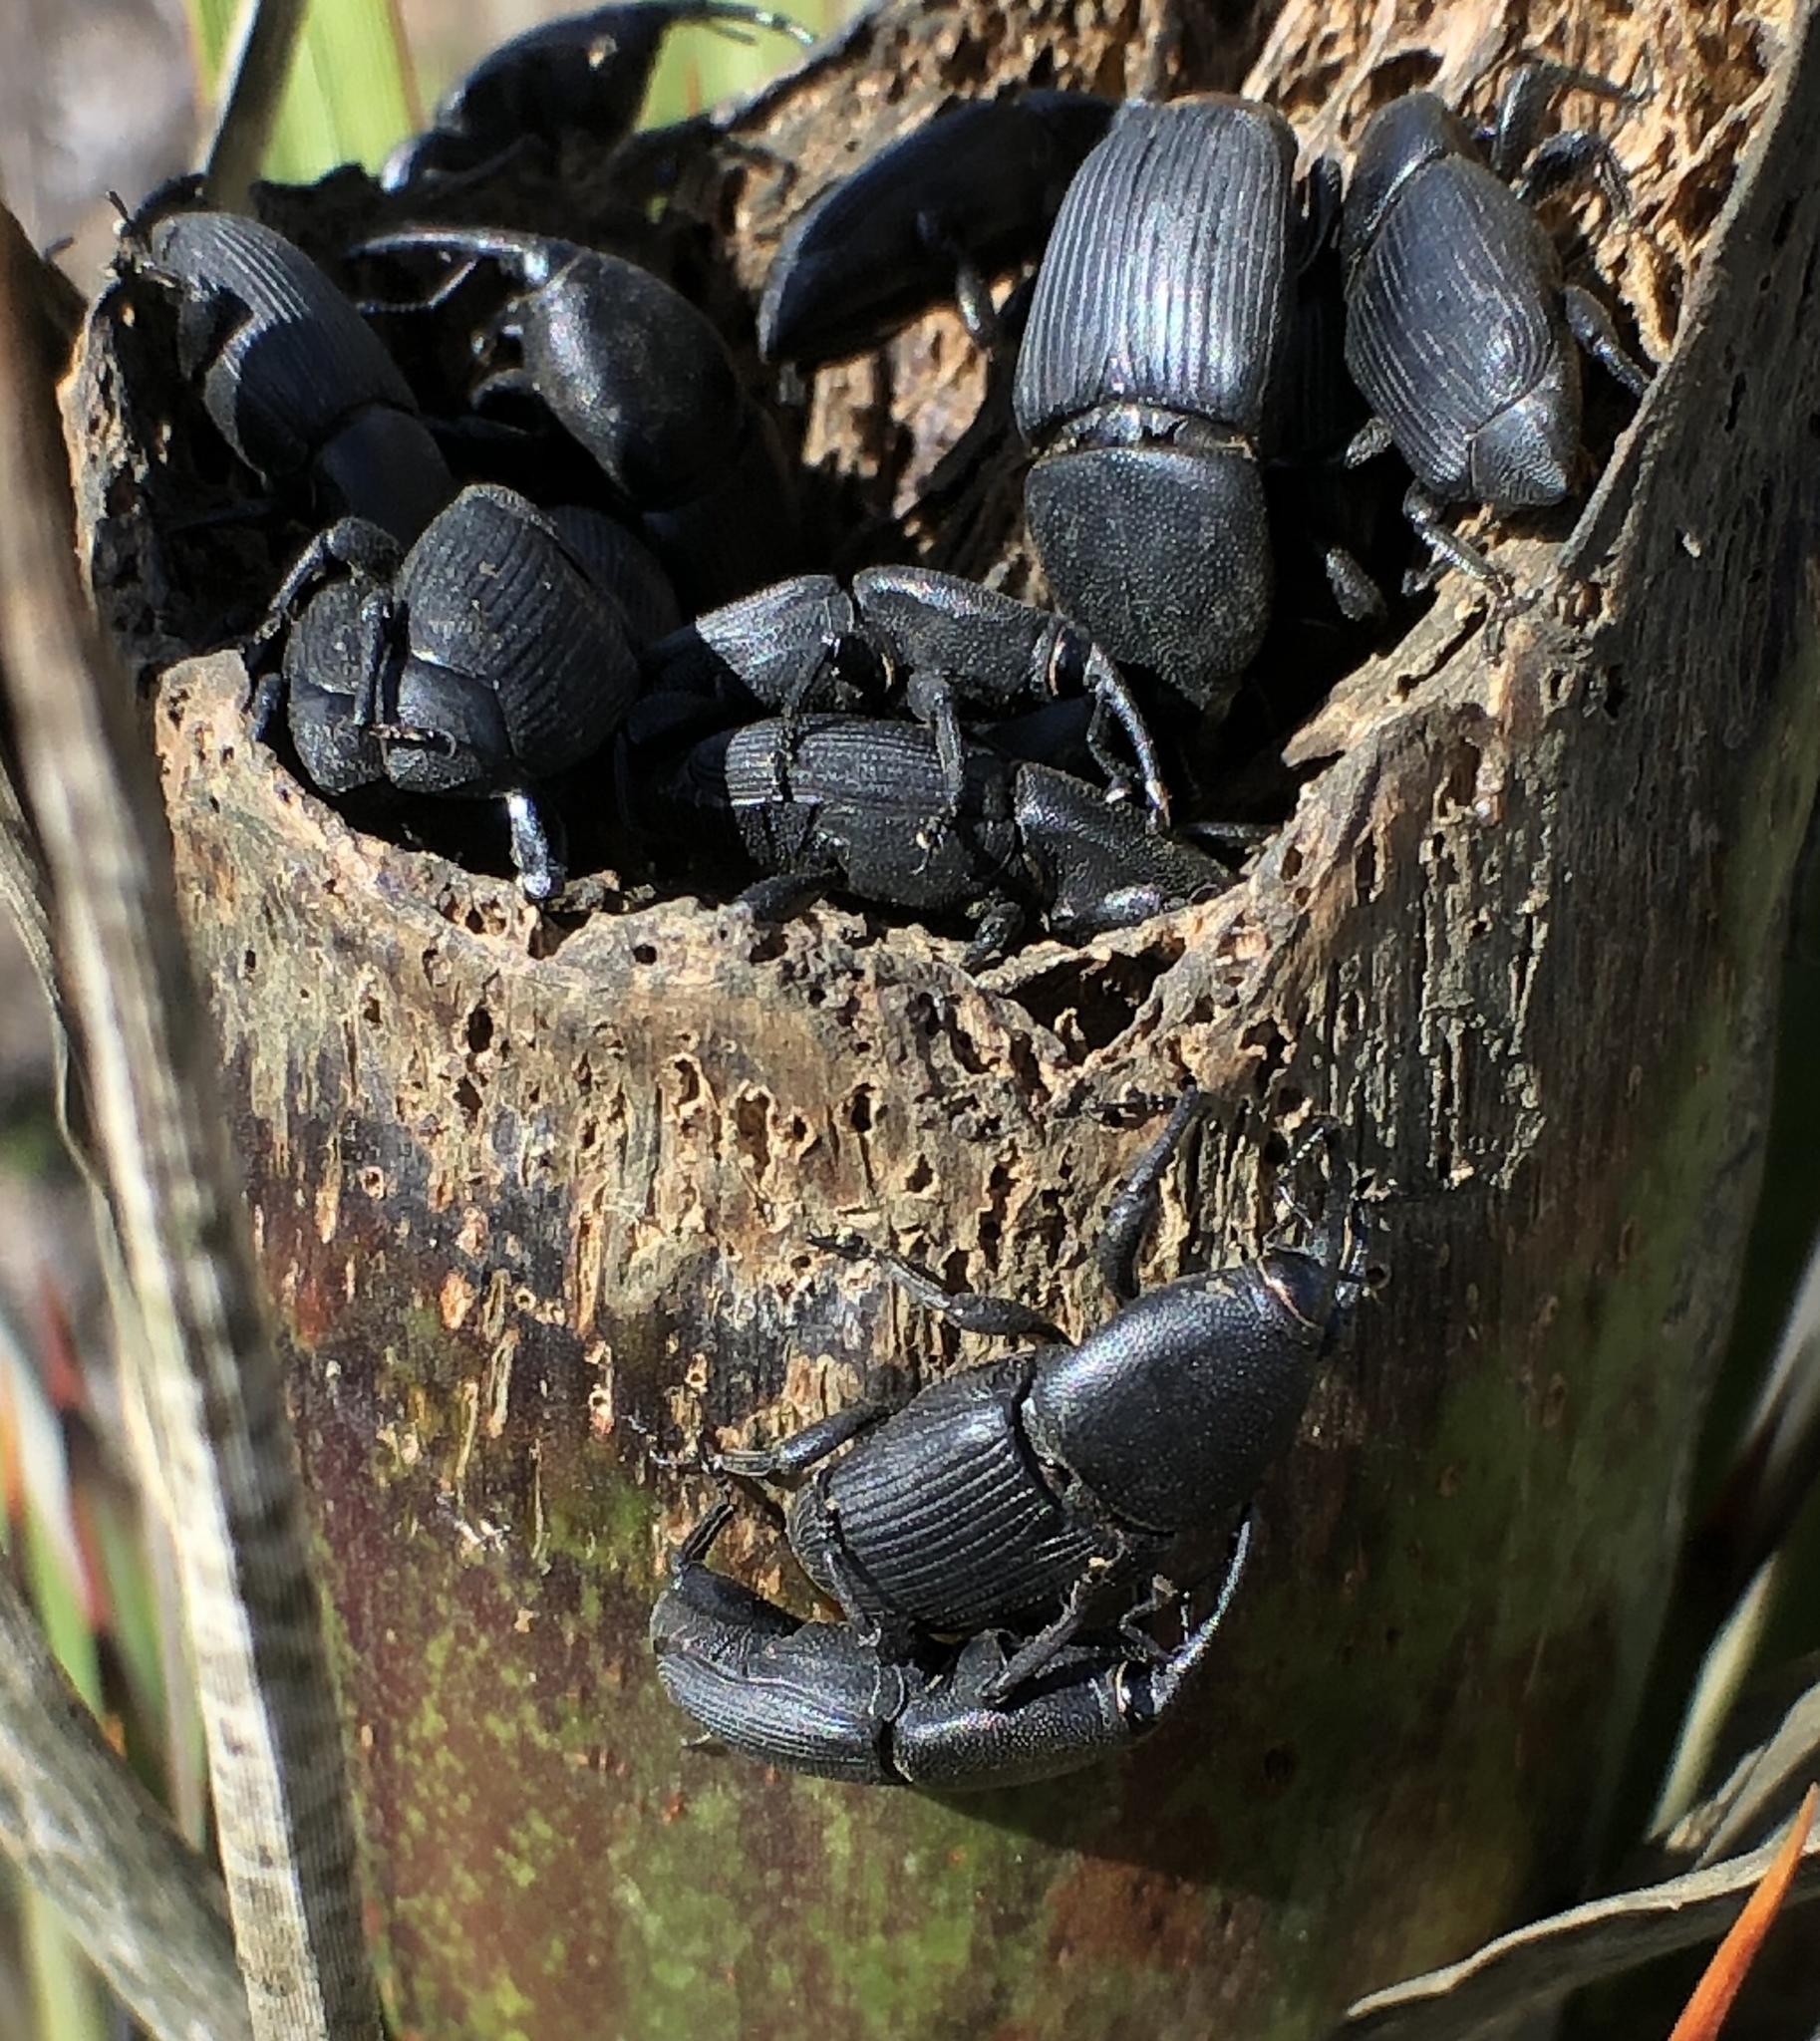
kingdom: Animalia
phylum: Arthropoda
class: Insecta
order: Coleoptera
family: Dryophthoridae
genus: Scyphophorus
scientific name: Scyphophorus yuccae
